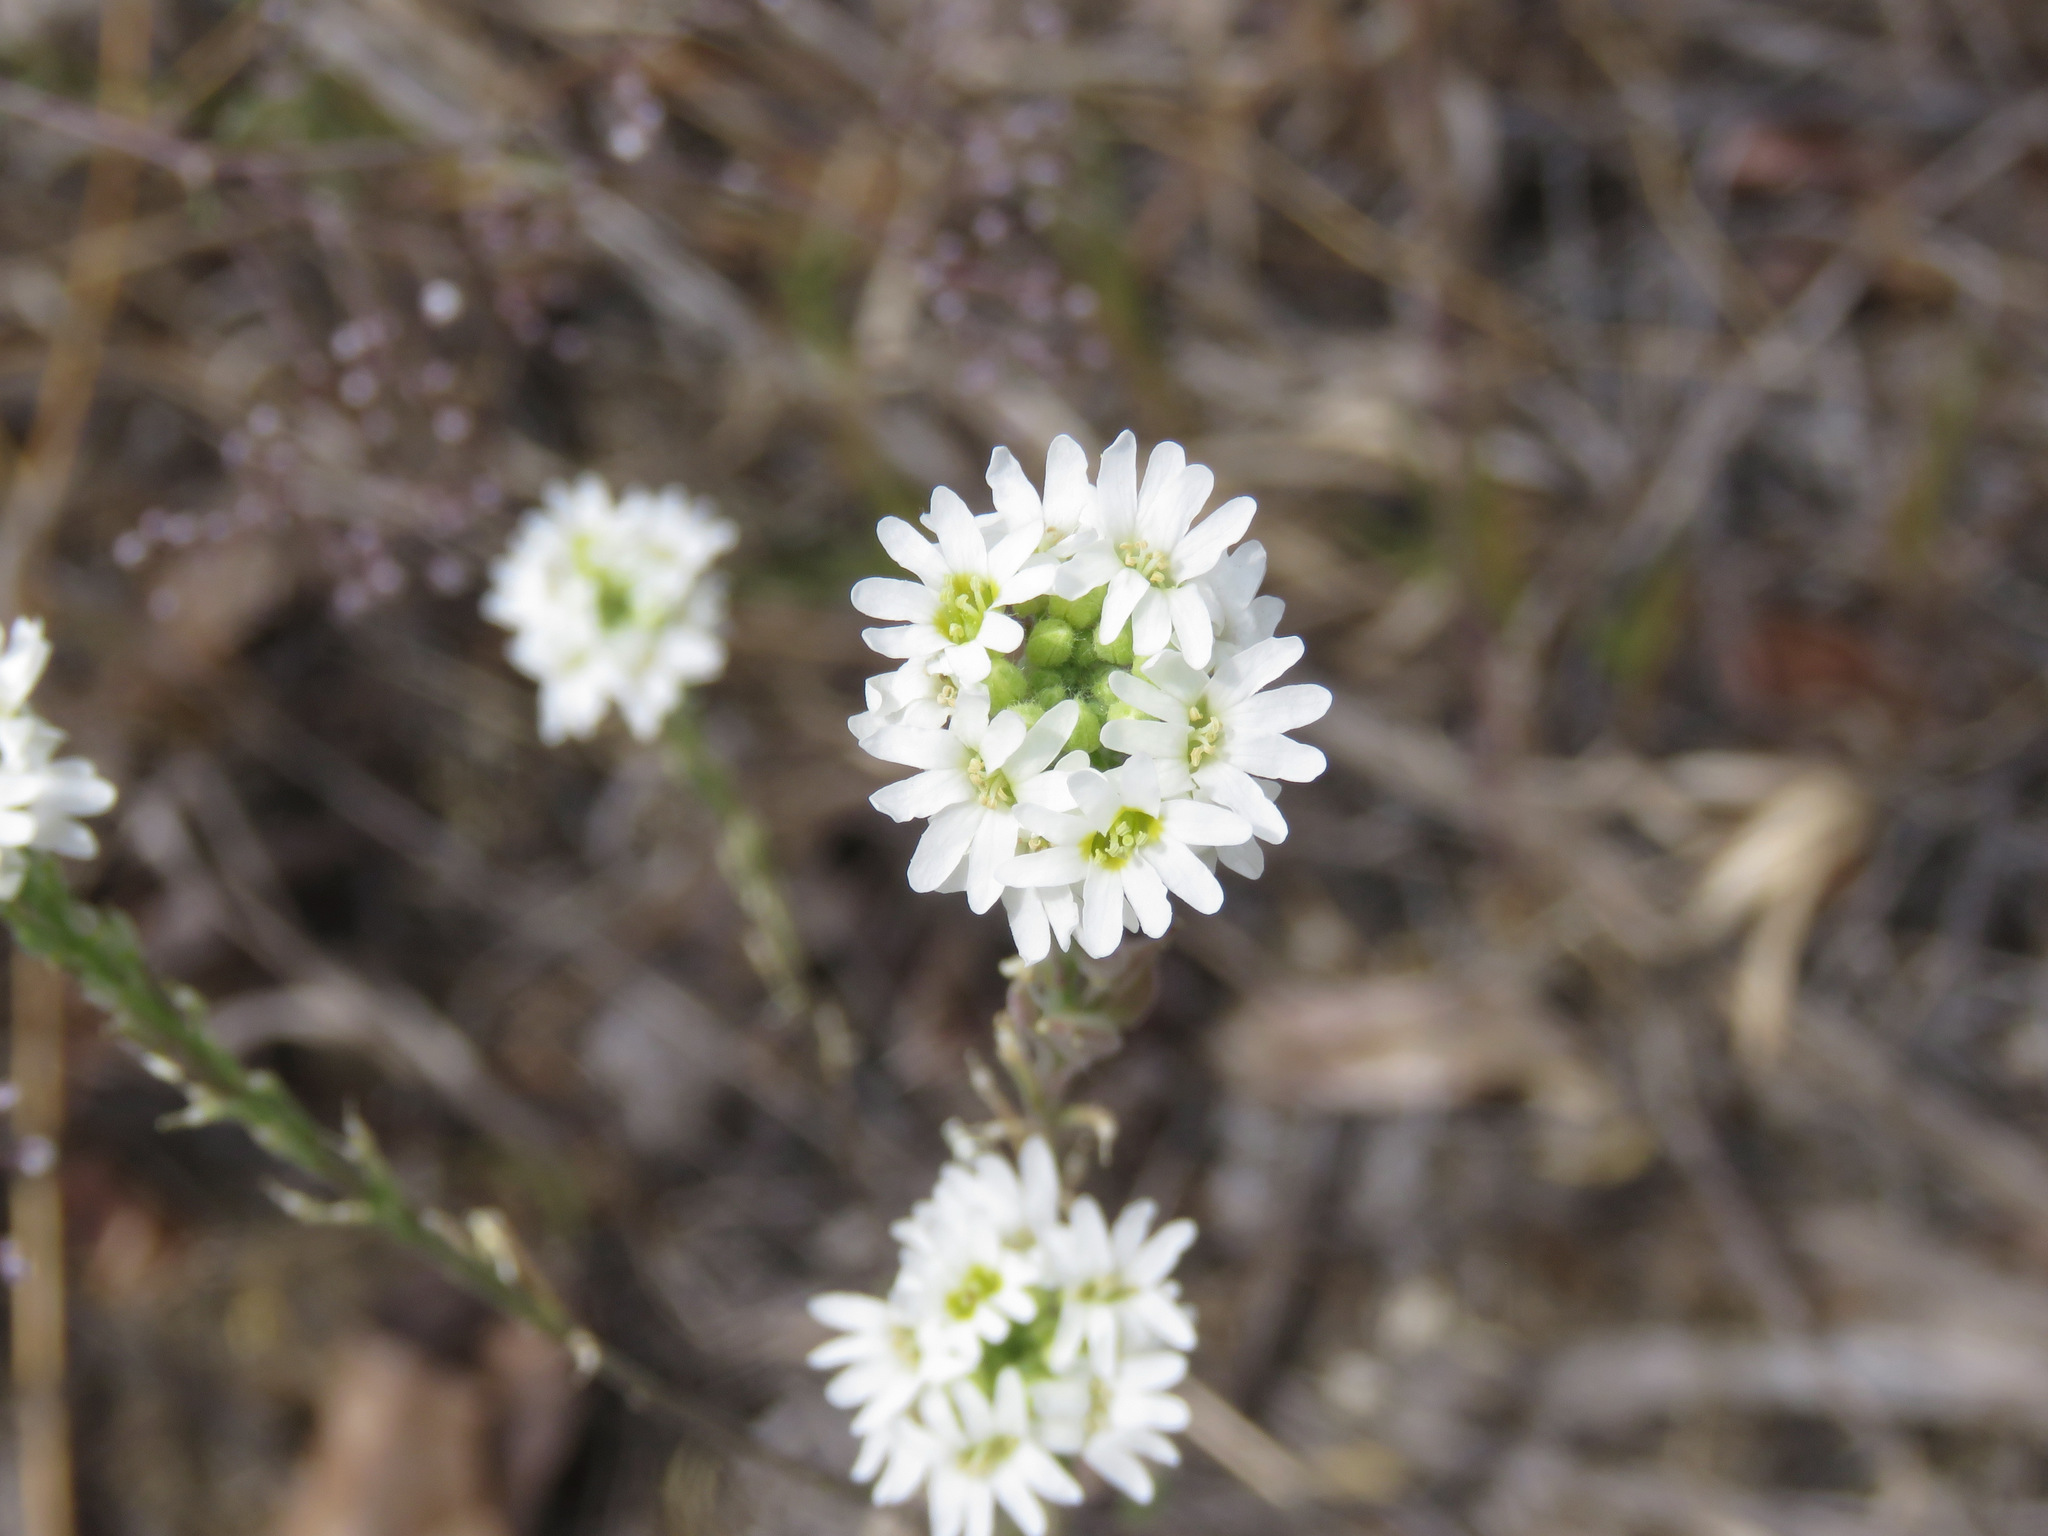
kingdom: Plantae
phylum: Tracheophyta
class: Magnoliopsida
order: Brassicales
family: Brassicaceae
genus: Berteroa
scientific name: Berteroa incana
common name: Hoary alison
